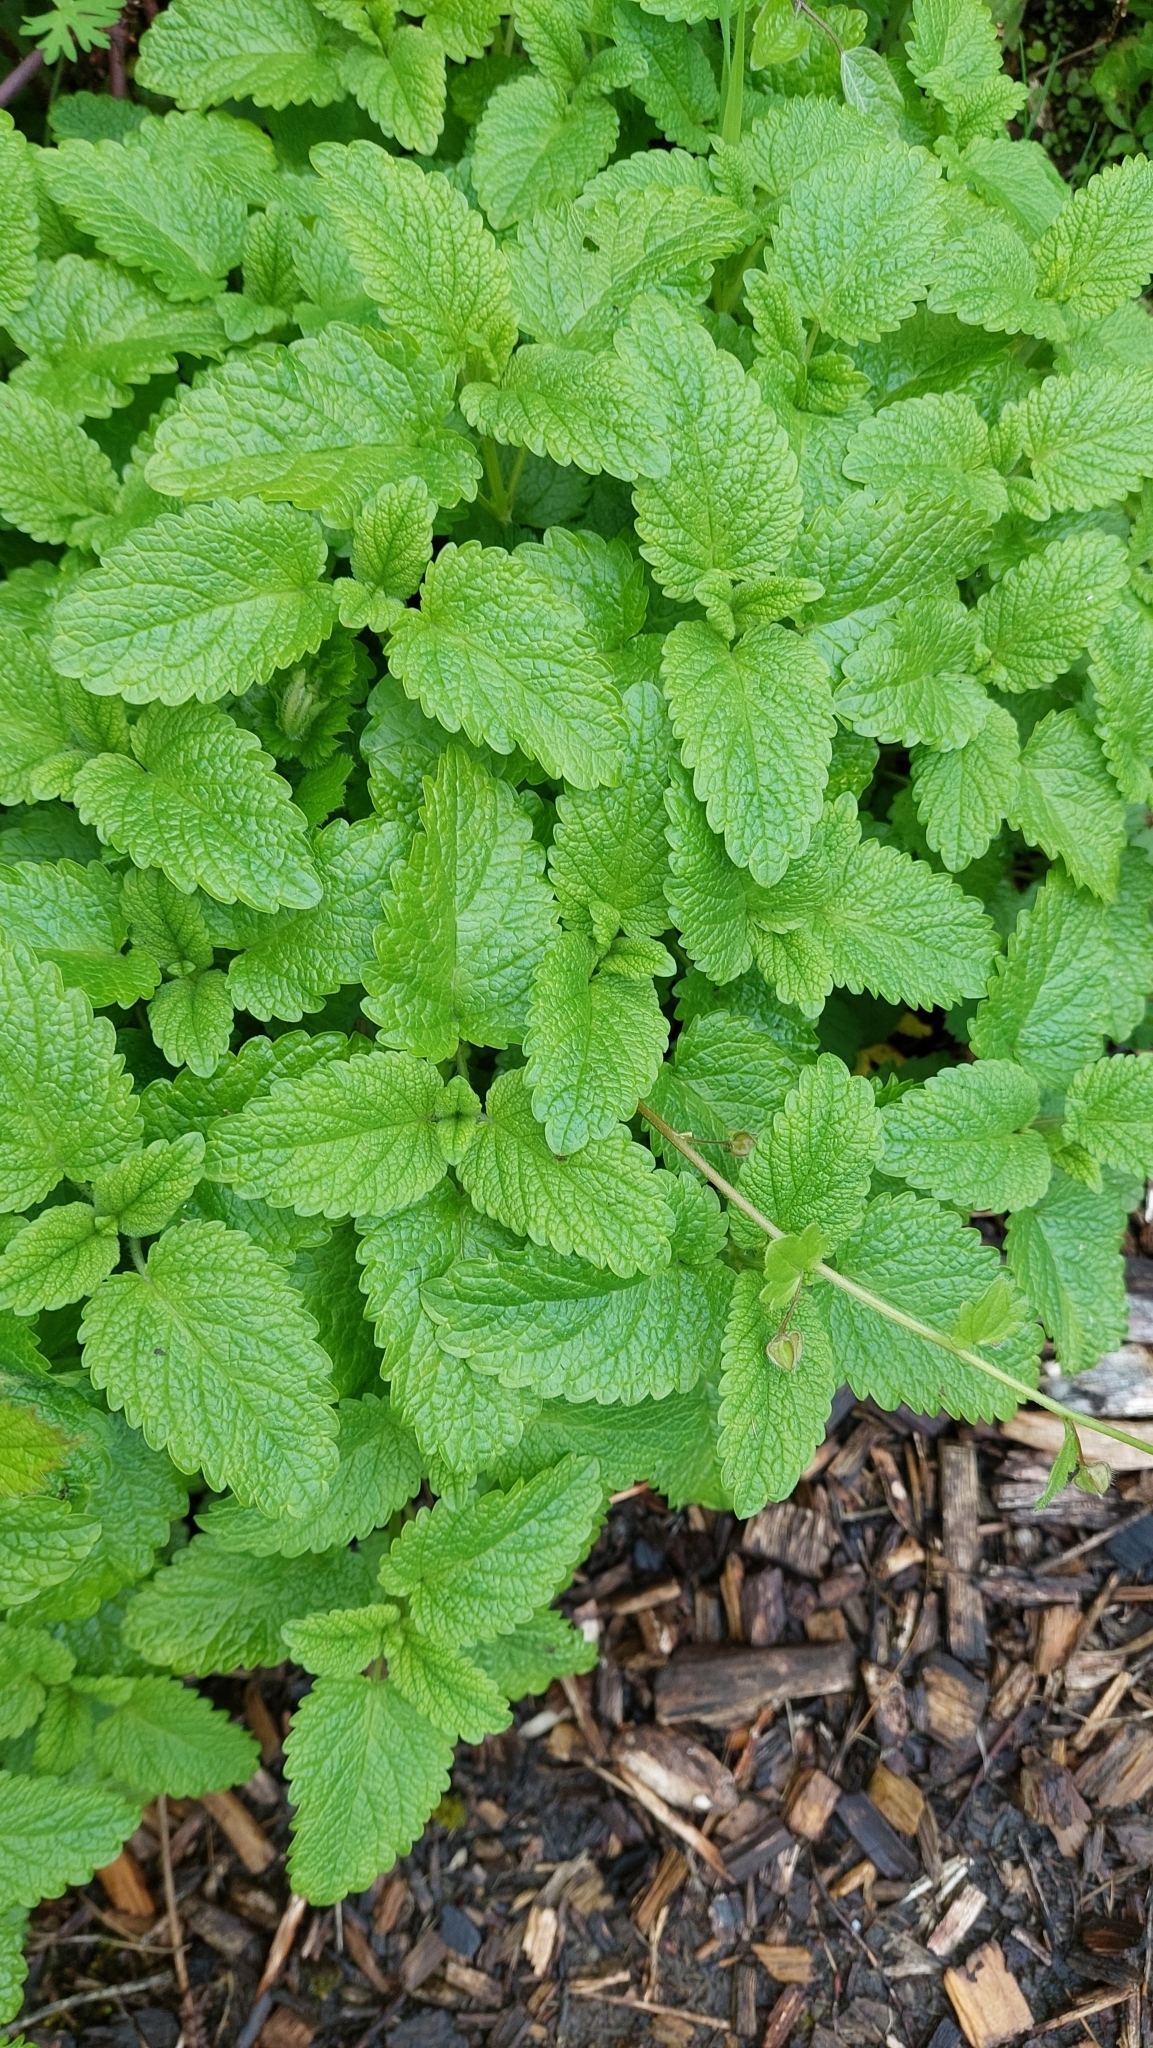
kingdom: Plantae
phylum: Tracheophyta
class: Magnoliopsida
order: Lamiales
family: Lamiaceae
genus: Melissa
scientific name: Melissa officinalis
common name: Balm
